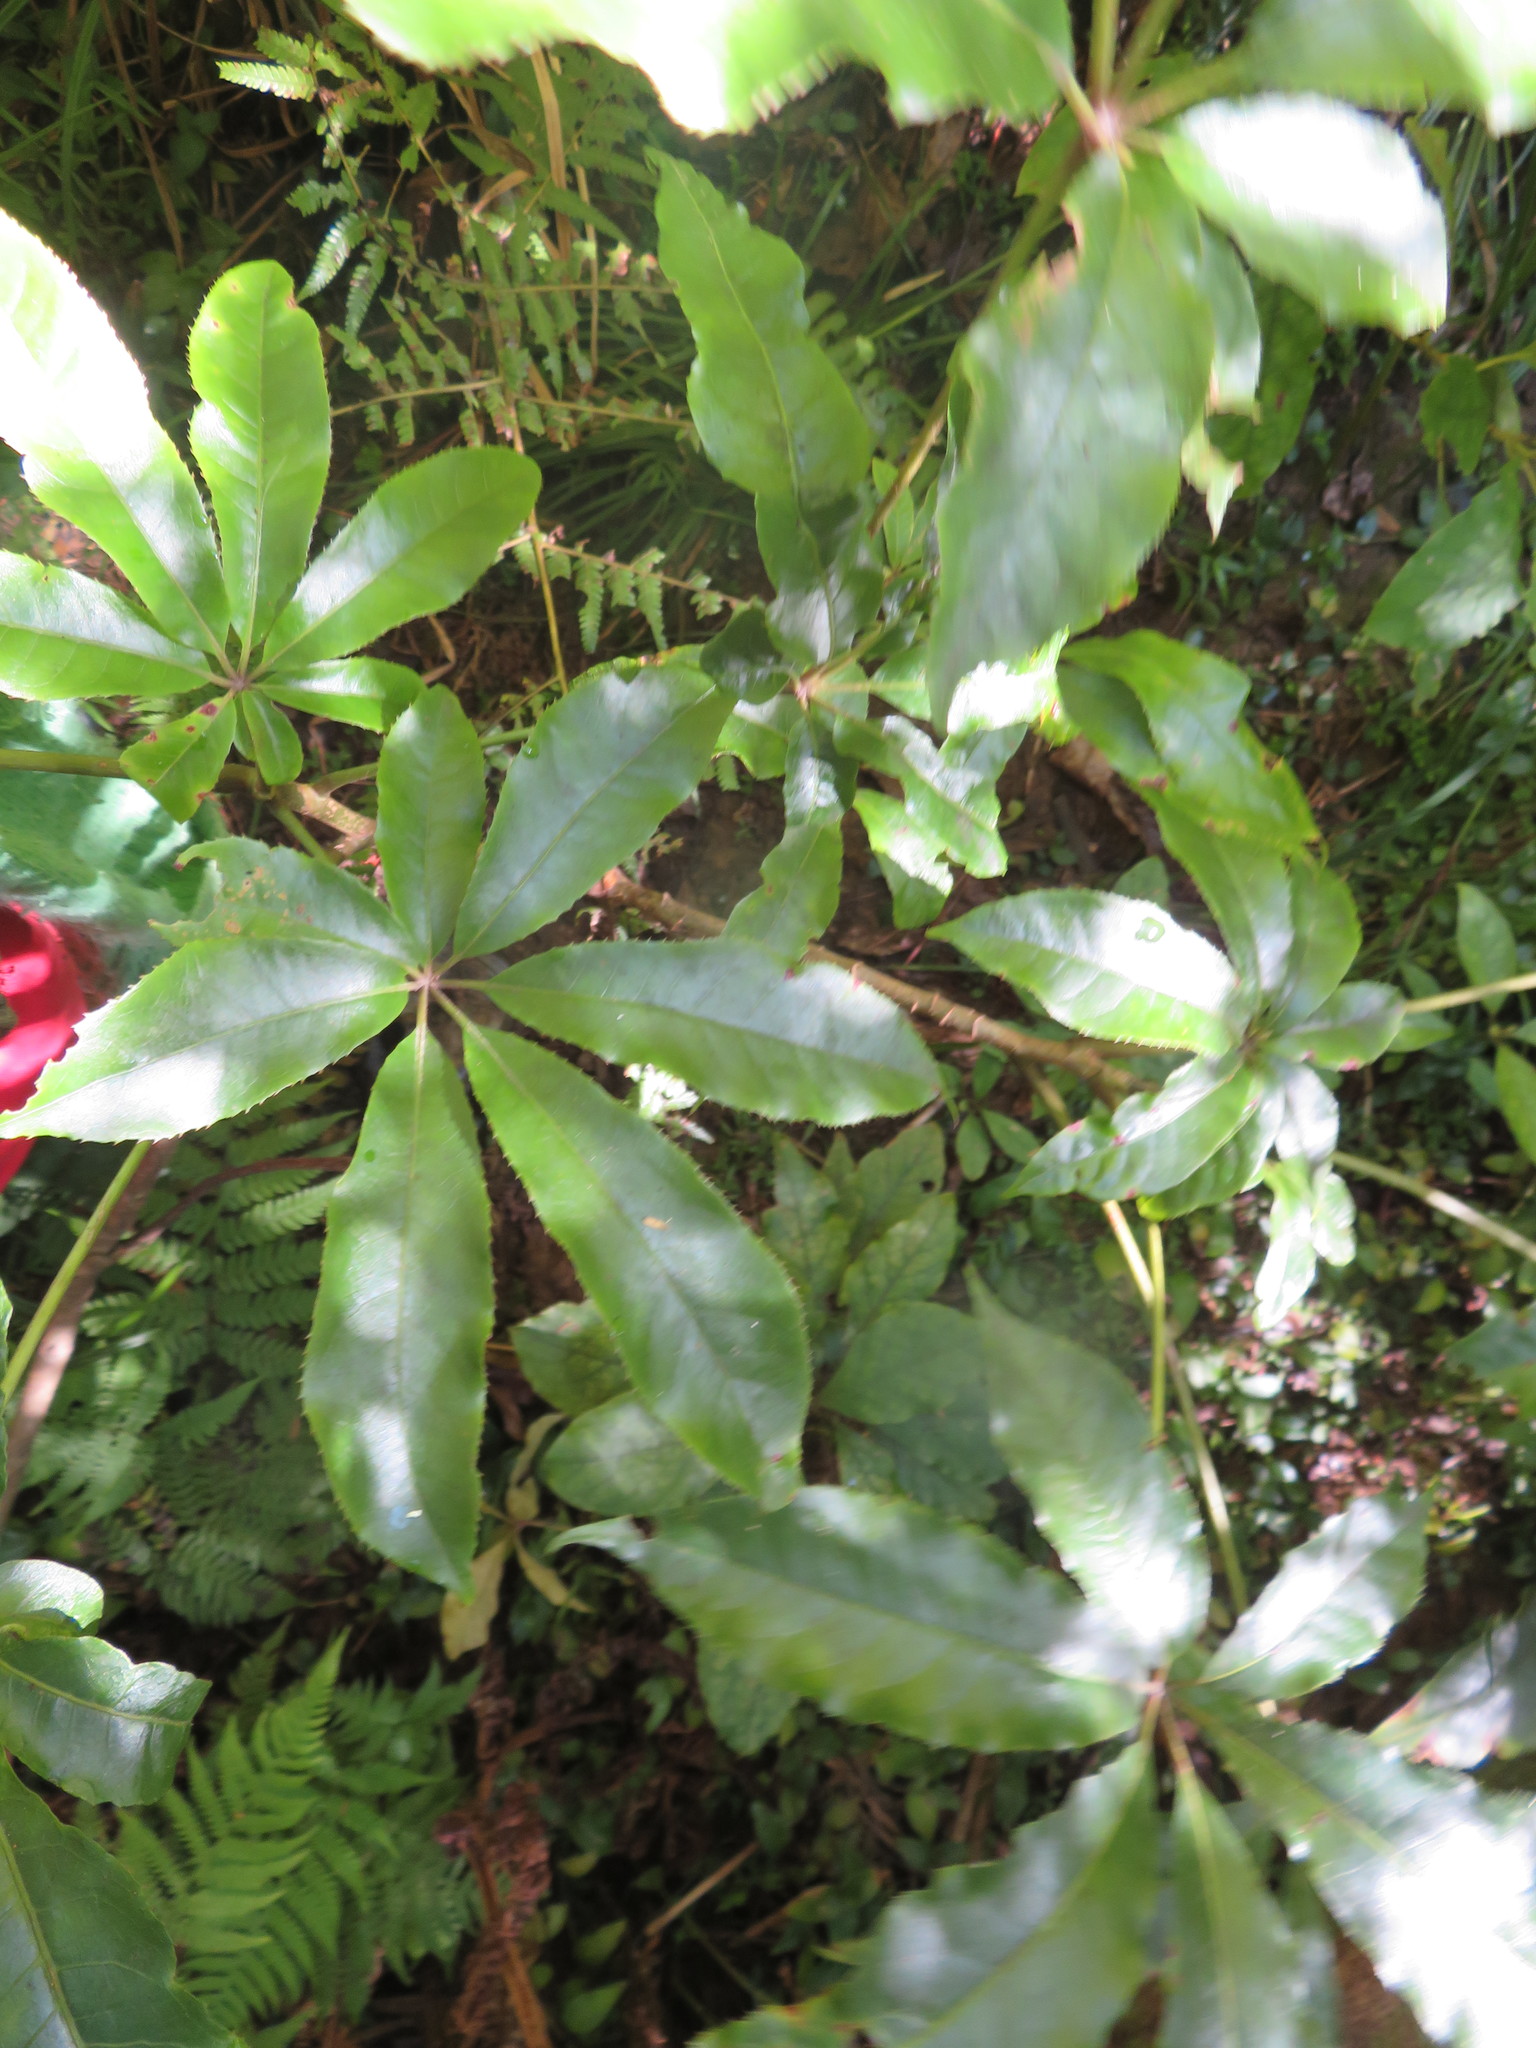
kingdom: Plantae
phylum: Tracheophyta
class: Magnoliopsida
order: Apiales
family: Araliaceae
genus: Schefflera
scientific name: Schefflera digitata
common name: Pate
